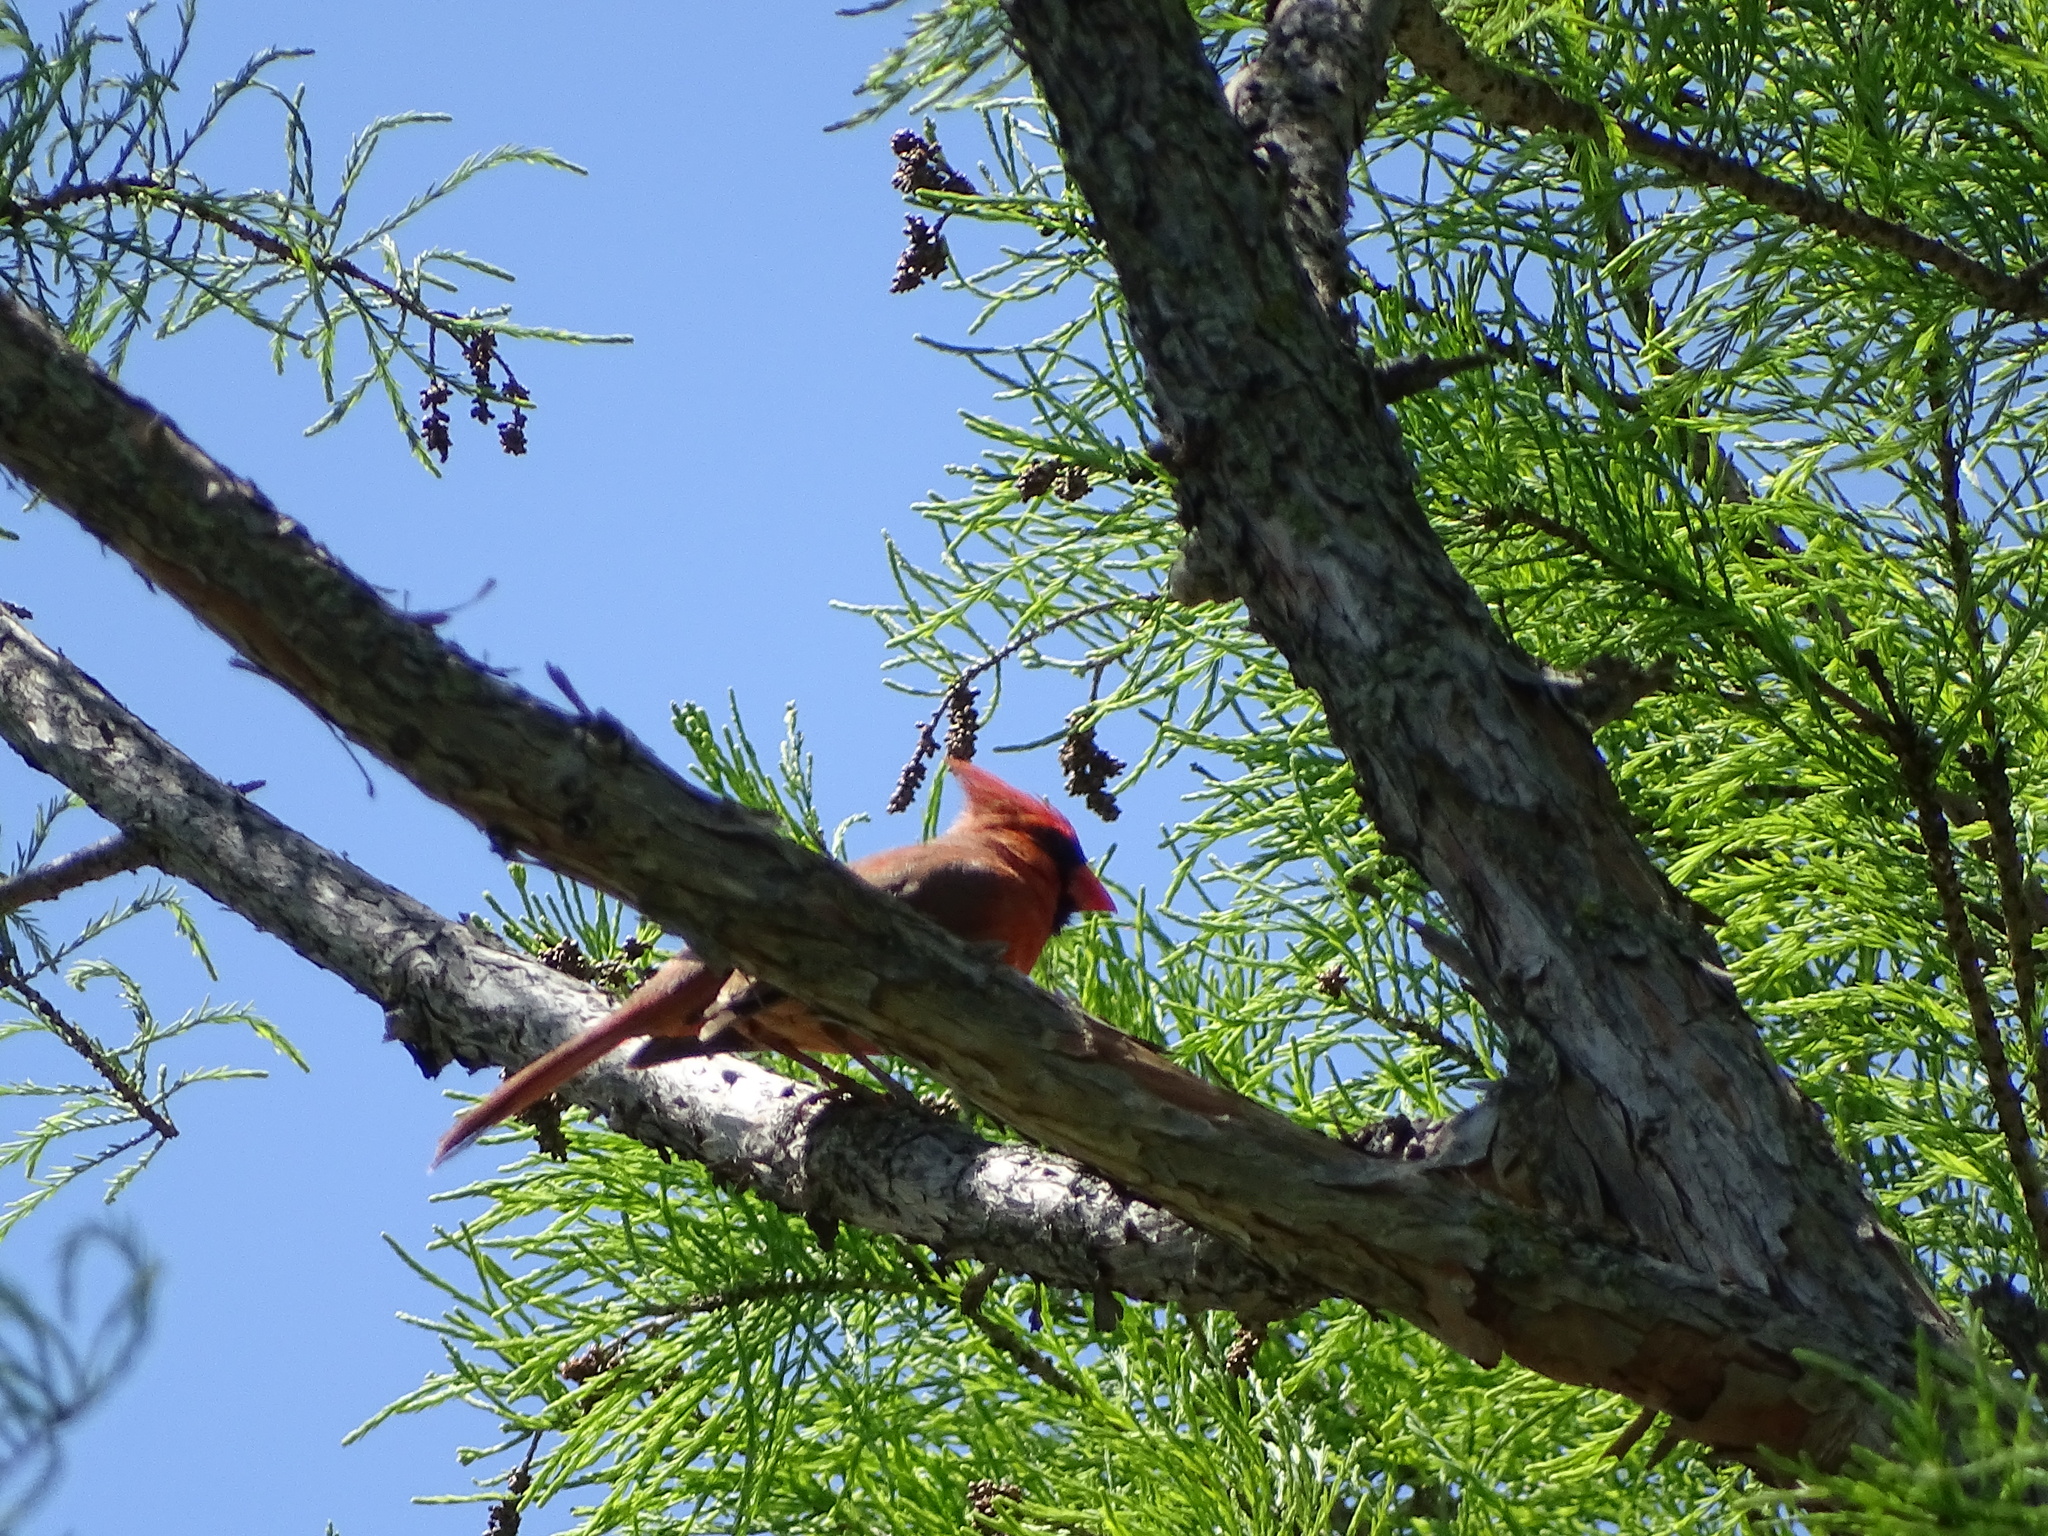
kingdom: Animalia
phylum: Chordata
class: Aves
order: Passeriformes
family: Cardinalidae
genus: Cardinalis
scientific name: Cardinalis cardinalis
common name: Northern cardinal
